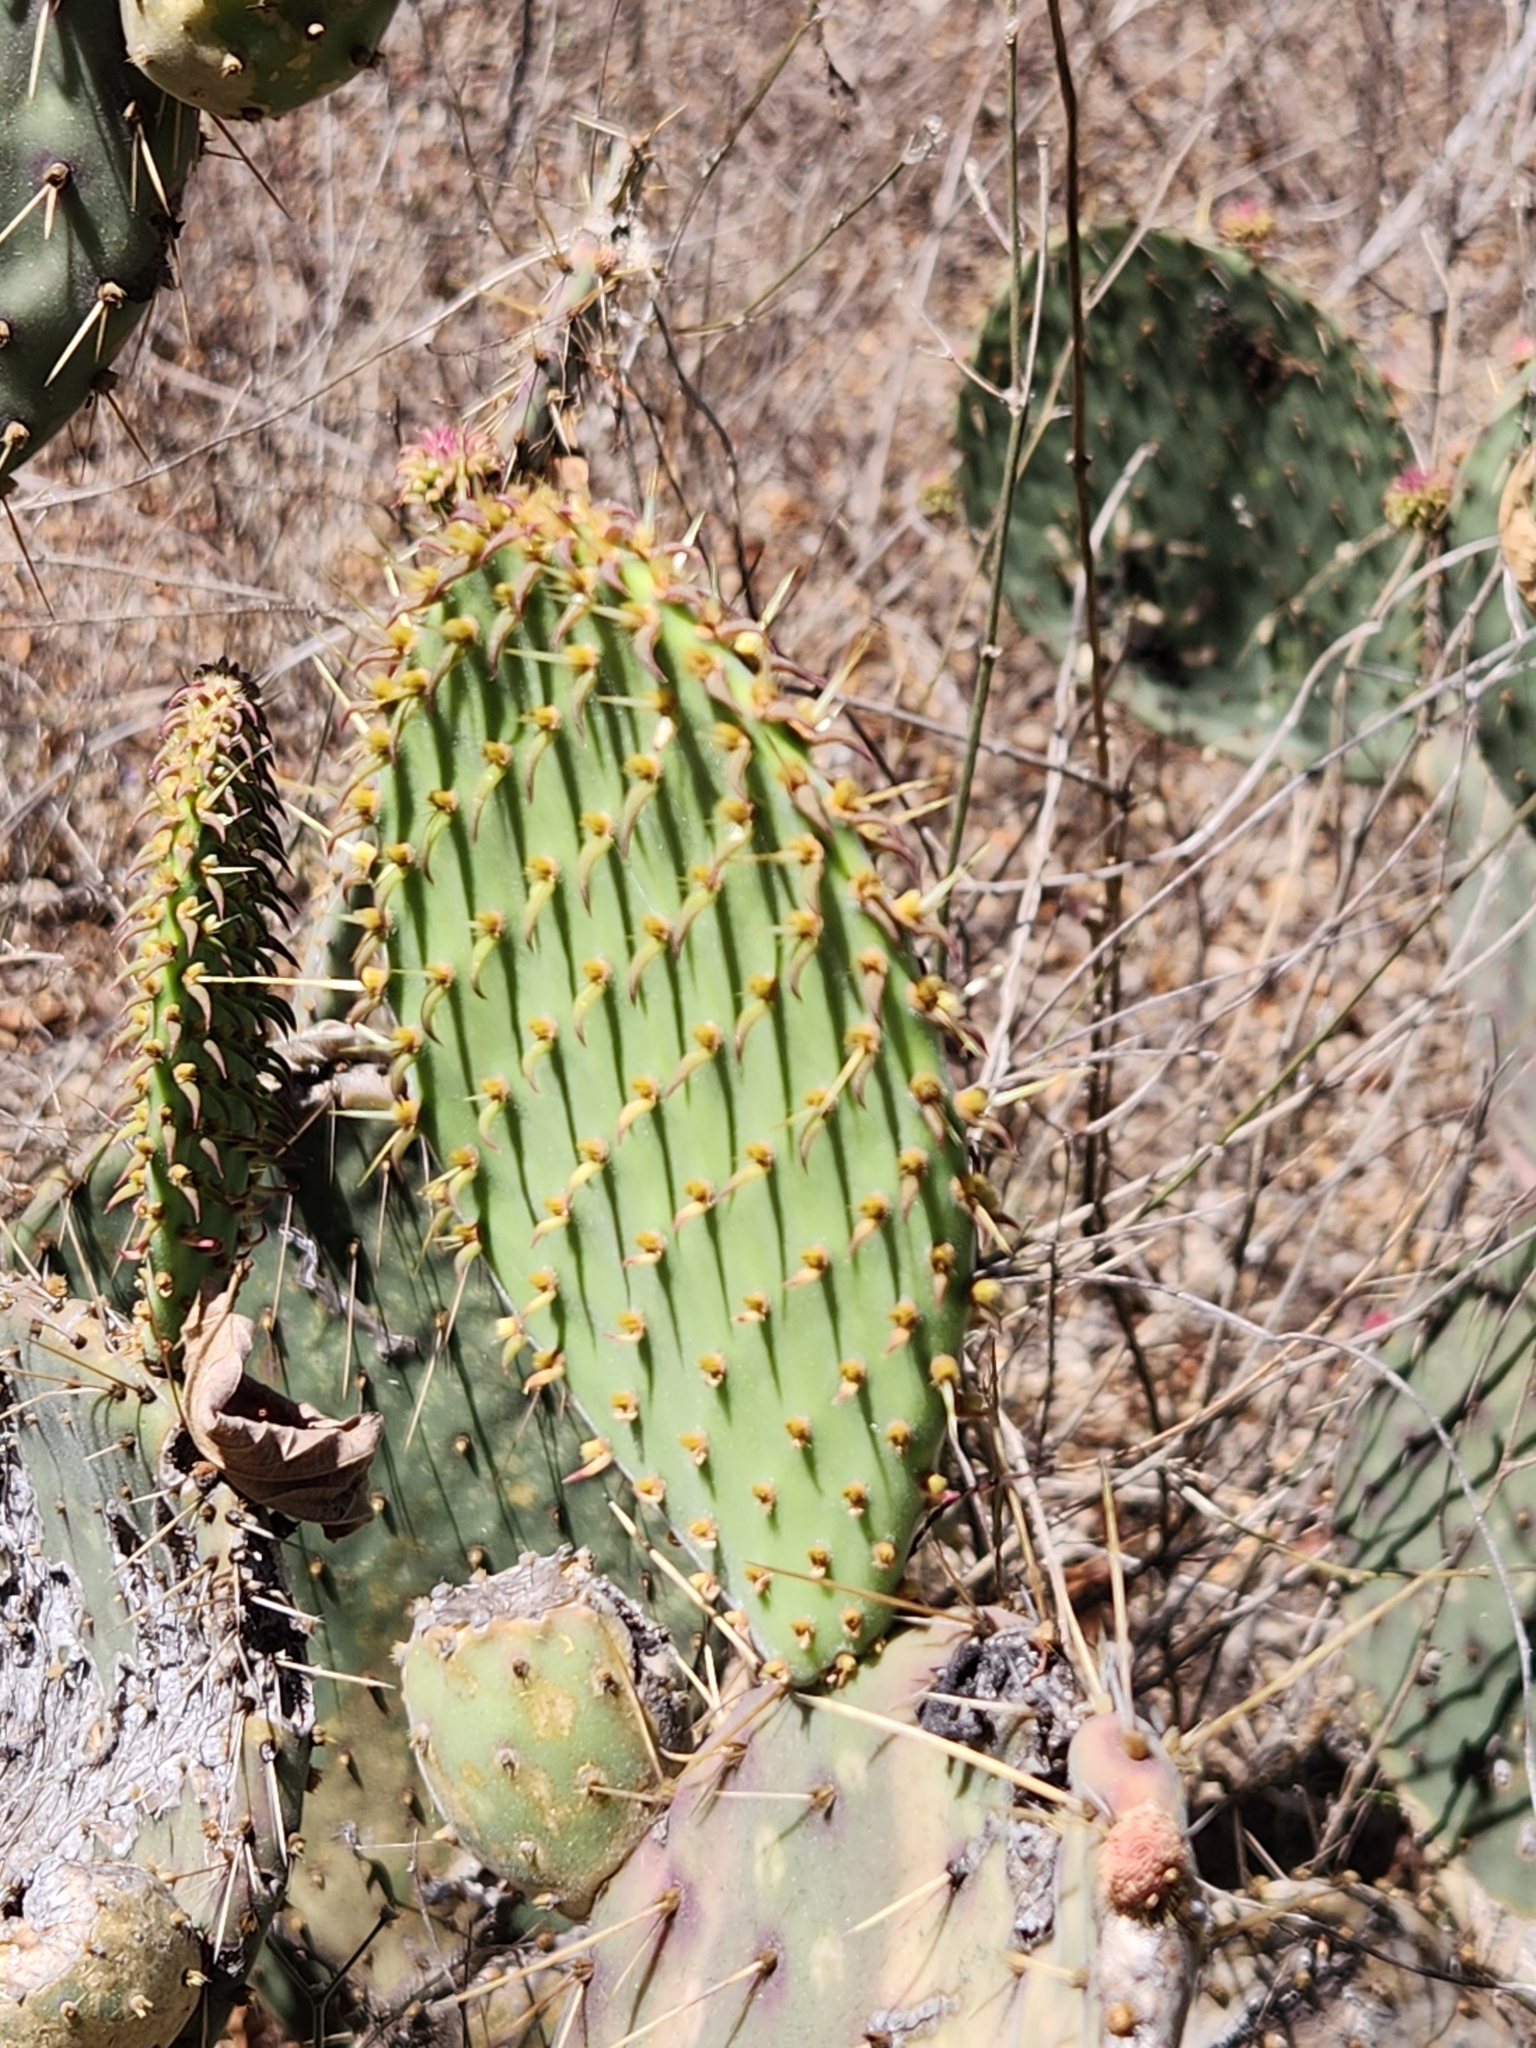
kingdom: Plantae
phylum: Tracheophyta
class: Magnoliopsida
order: Caryophyllales
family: Cactaceae
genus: Opuntia
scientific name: Opuntia caboensis
